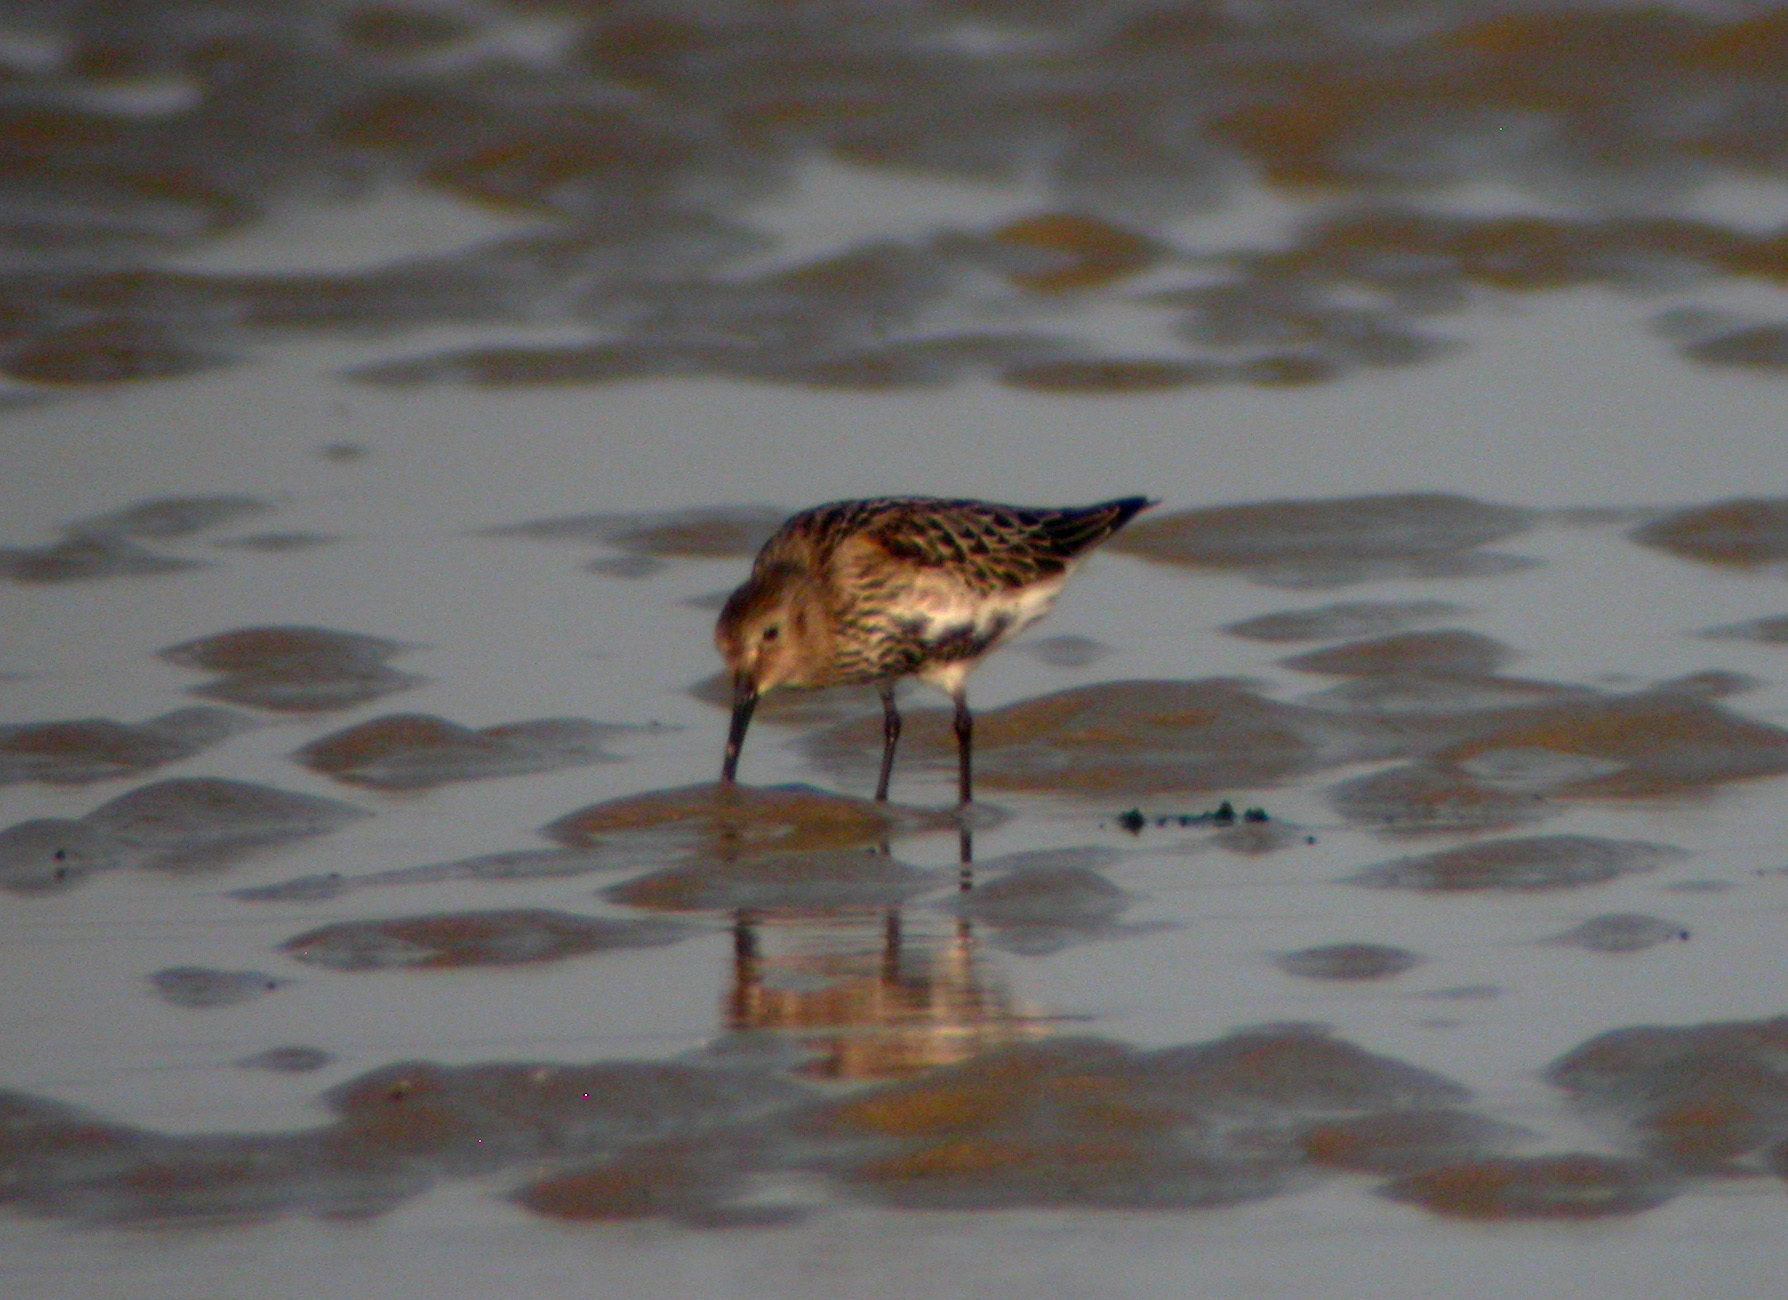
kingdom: Animalia
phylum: Chordata
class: Aves
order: Charadriiformes
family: Scolopacidae
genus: Calidris
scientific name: Calidris alpina
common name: Dunlin
